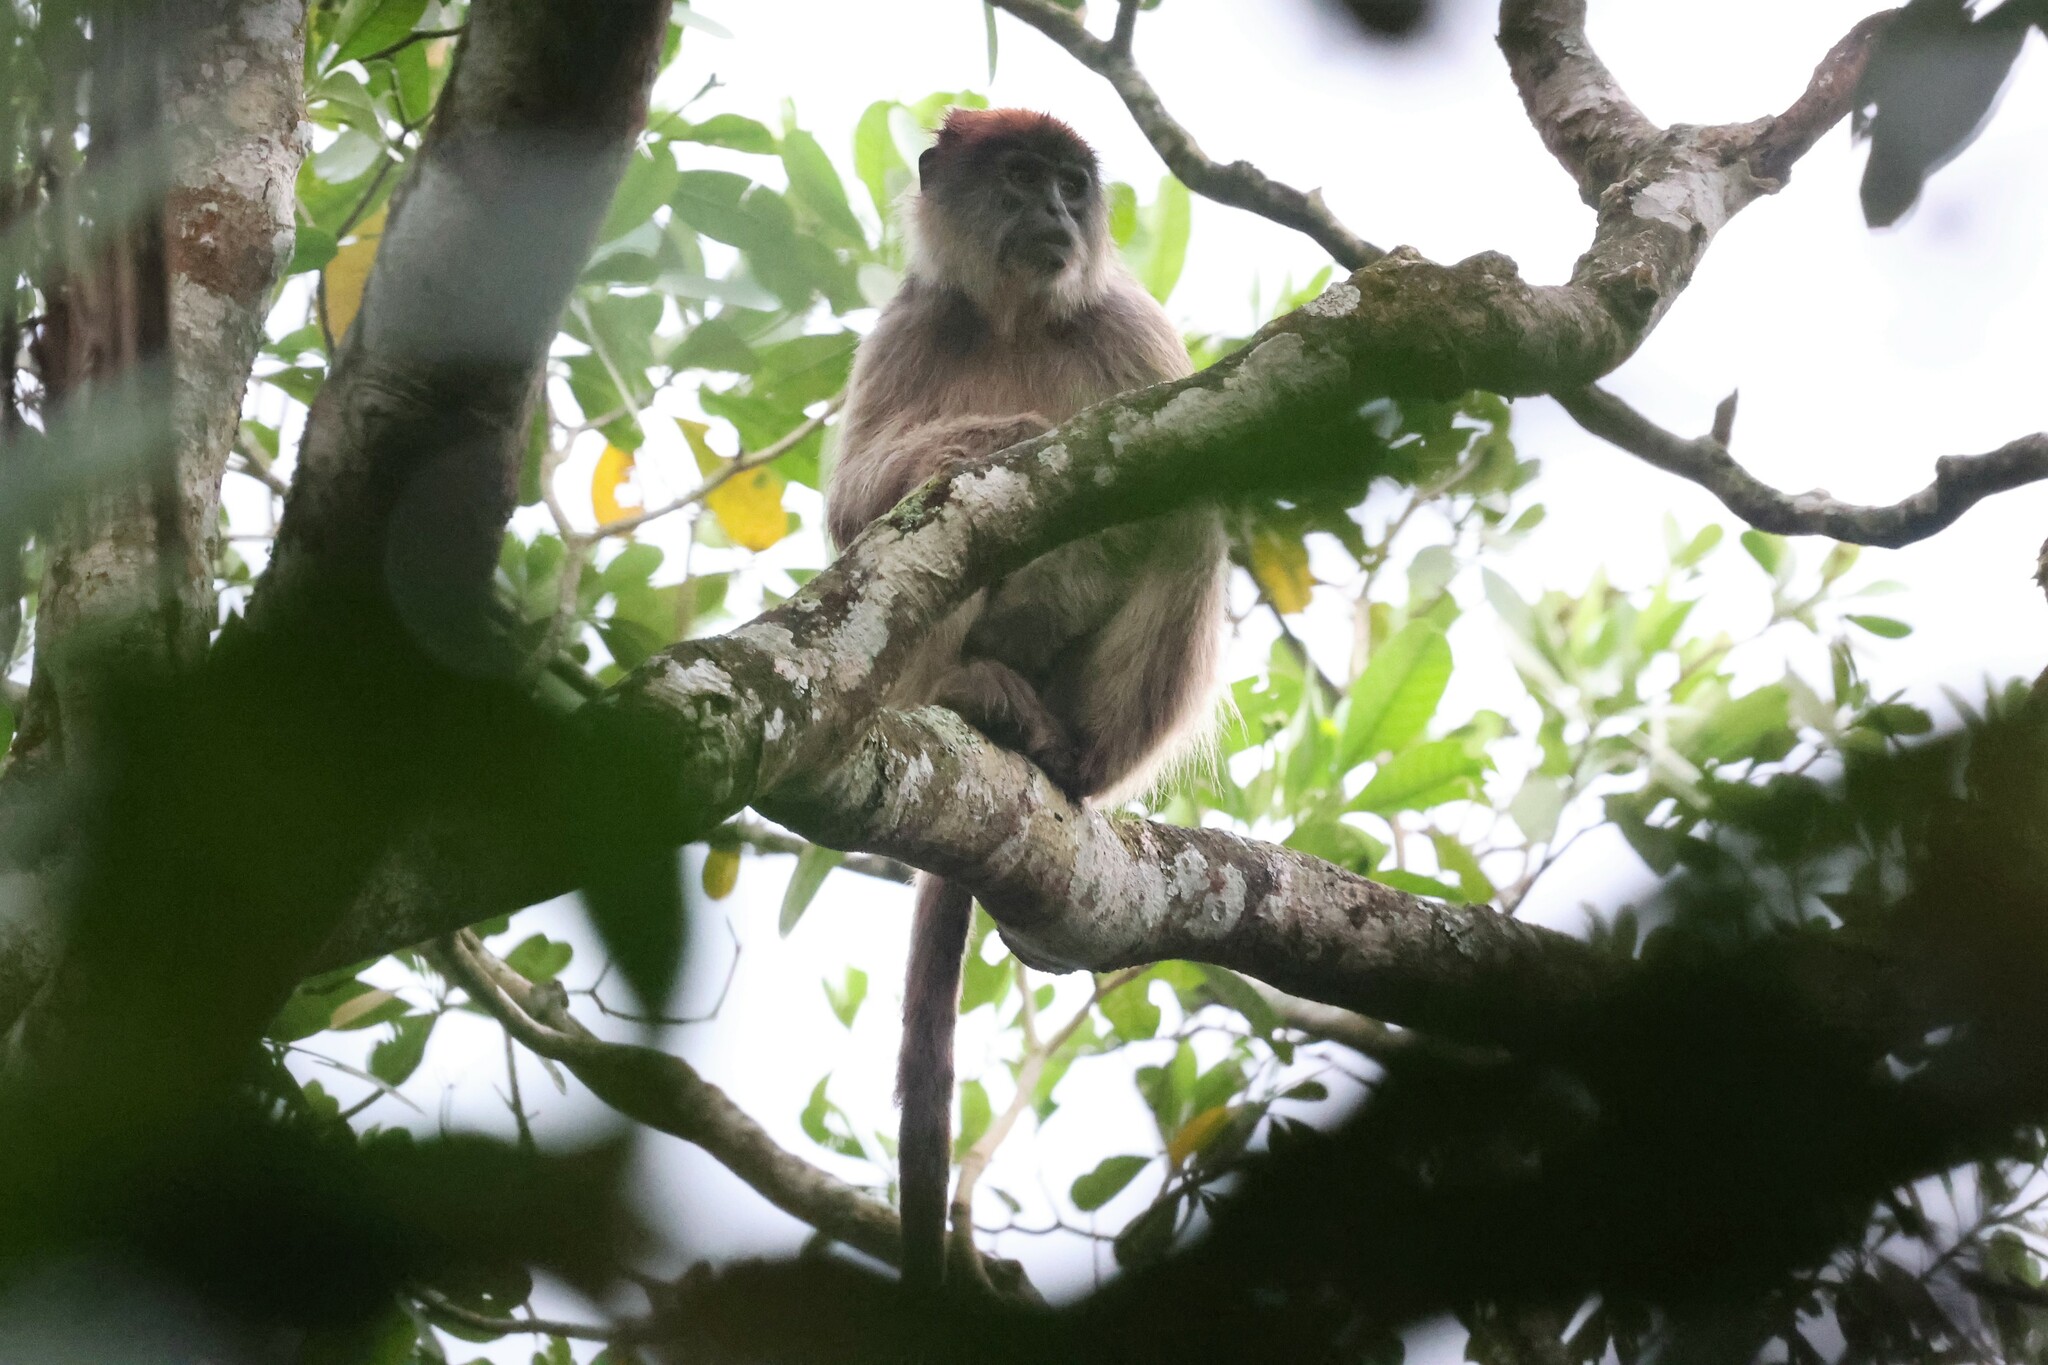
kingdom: Animalia
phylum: Chordata
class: Mammalia
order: Primates
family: Cercopithecidae
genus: Piliocolobus
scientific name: Piliocolobus tephrosceles
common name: Ugandan red colobus
